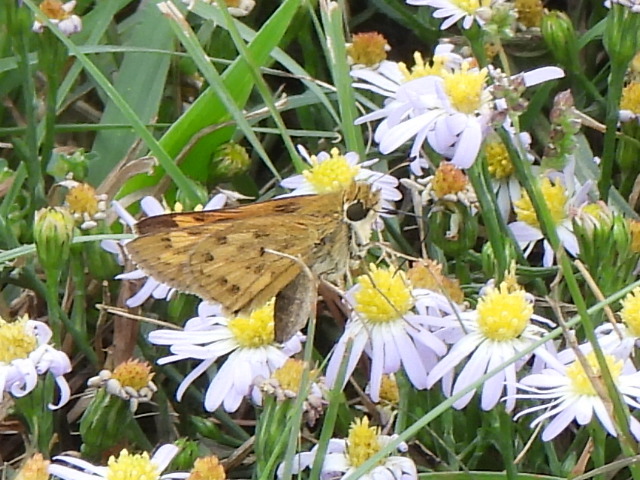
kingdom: Animalia
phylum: Arthropoda
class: Insecta
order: Lepidoptera
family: Hesperiidae
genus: Hylephila
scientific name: Hylephila phyleus
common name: Fiery skipper
